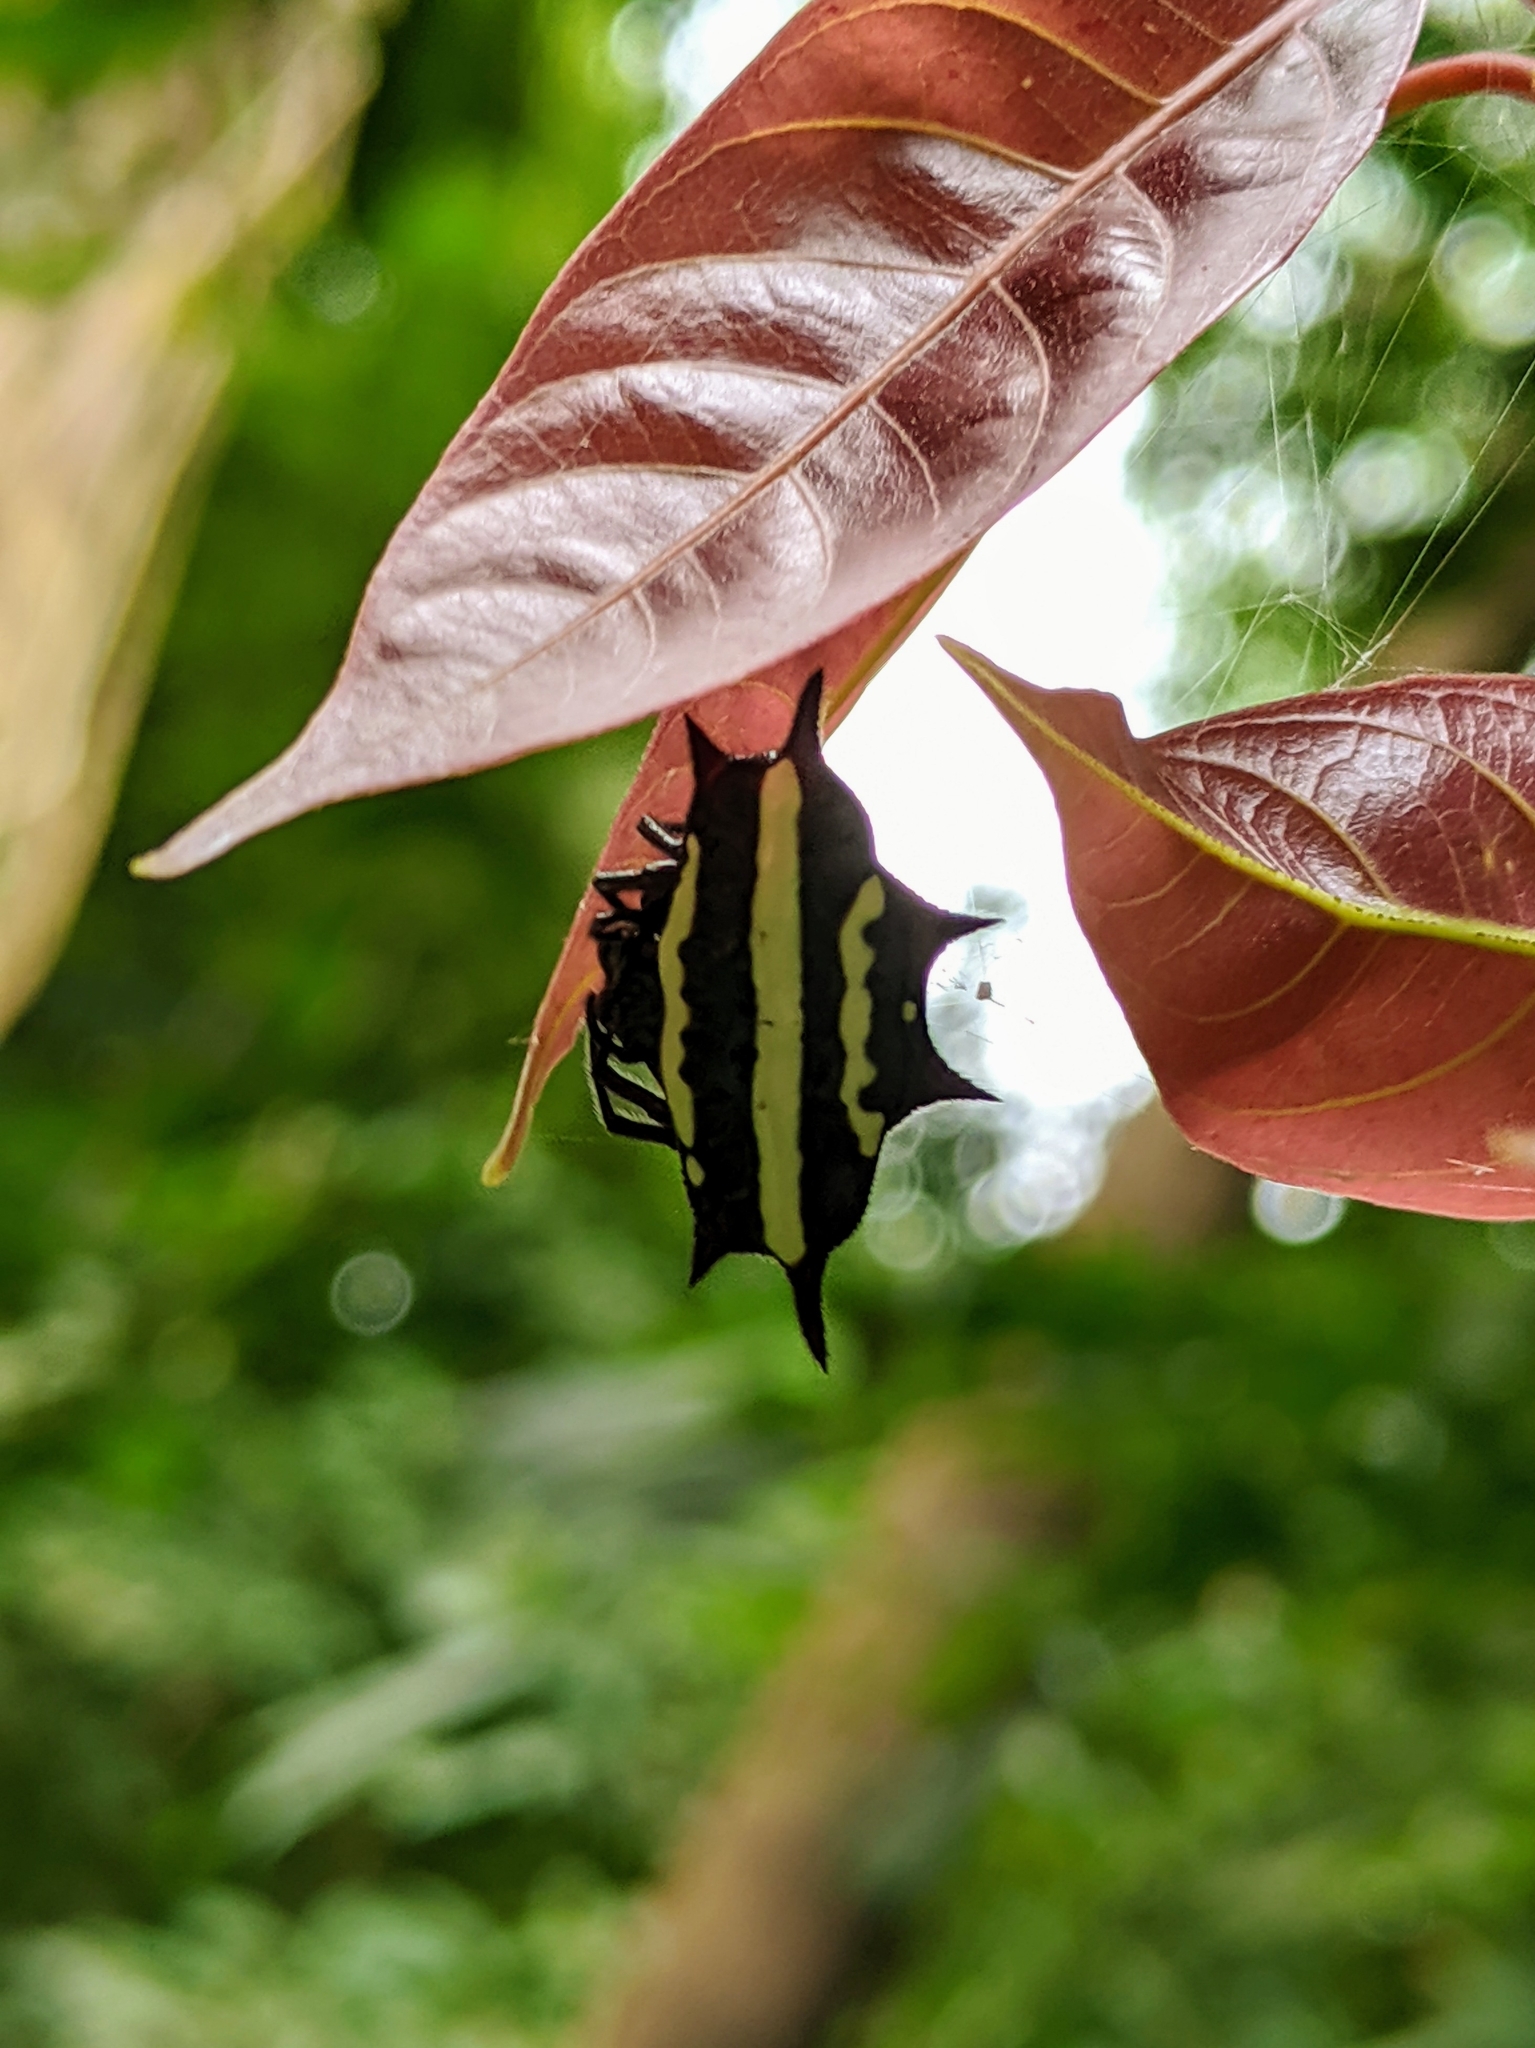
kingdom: Animalia
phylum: Arthropoda
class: Arachnida
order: Araneae
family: Araneidae
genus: Gasteracantha
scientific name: Gasteracantha doriae
